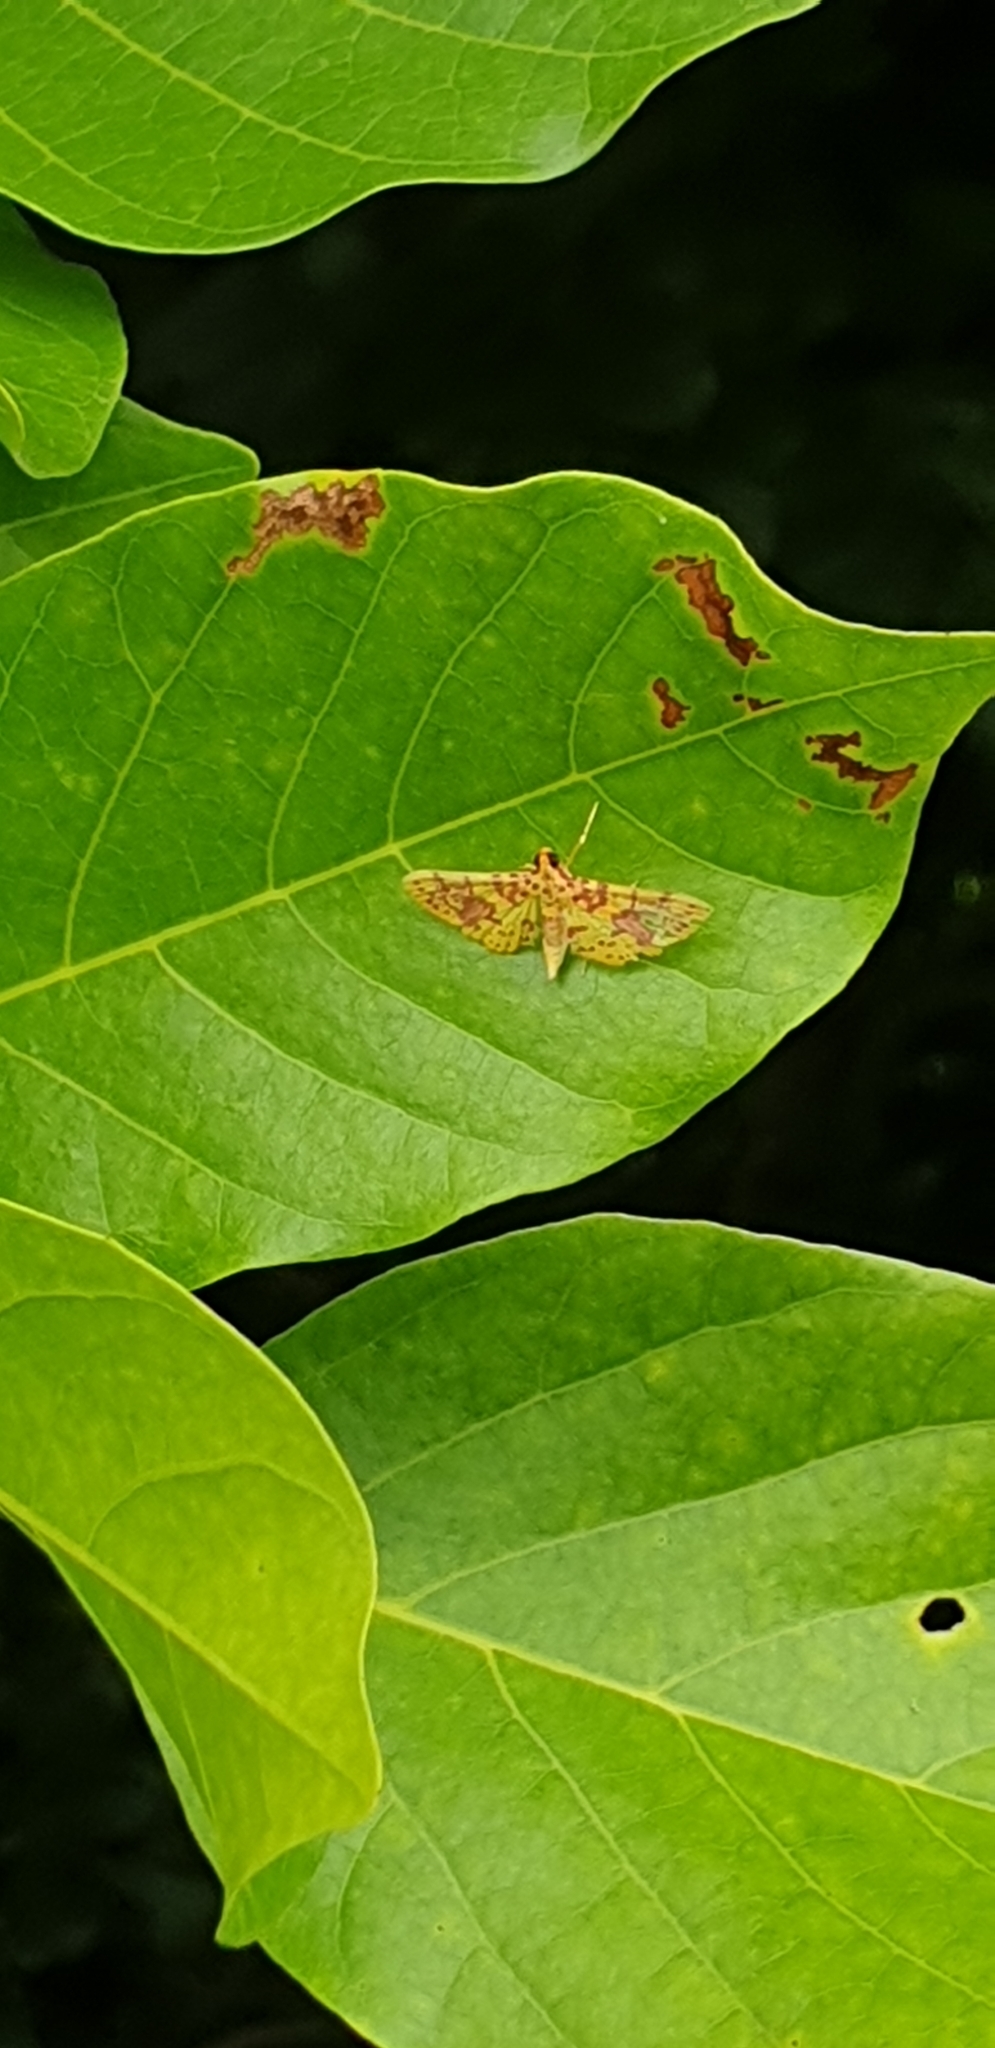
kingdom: Animalia
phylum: Arthropoda
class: Insecta
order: Lepidoptera
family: Crambidae
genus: Conogethes
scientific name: Conogethes haemactalis
